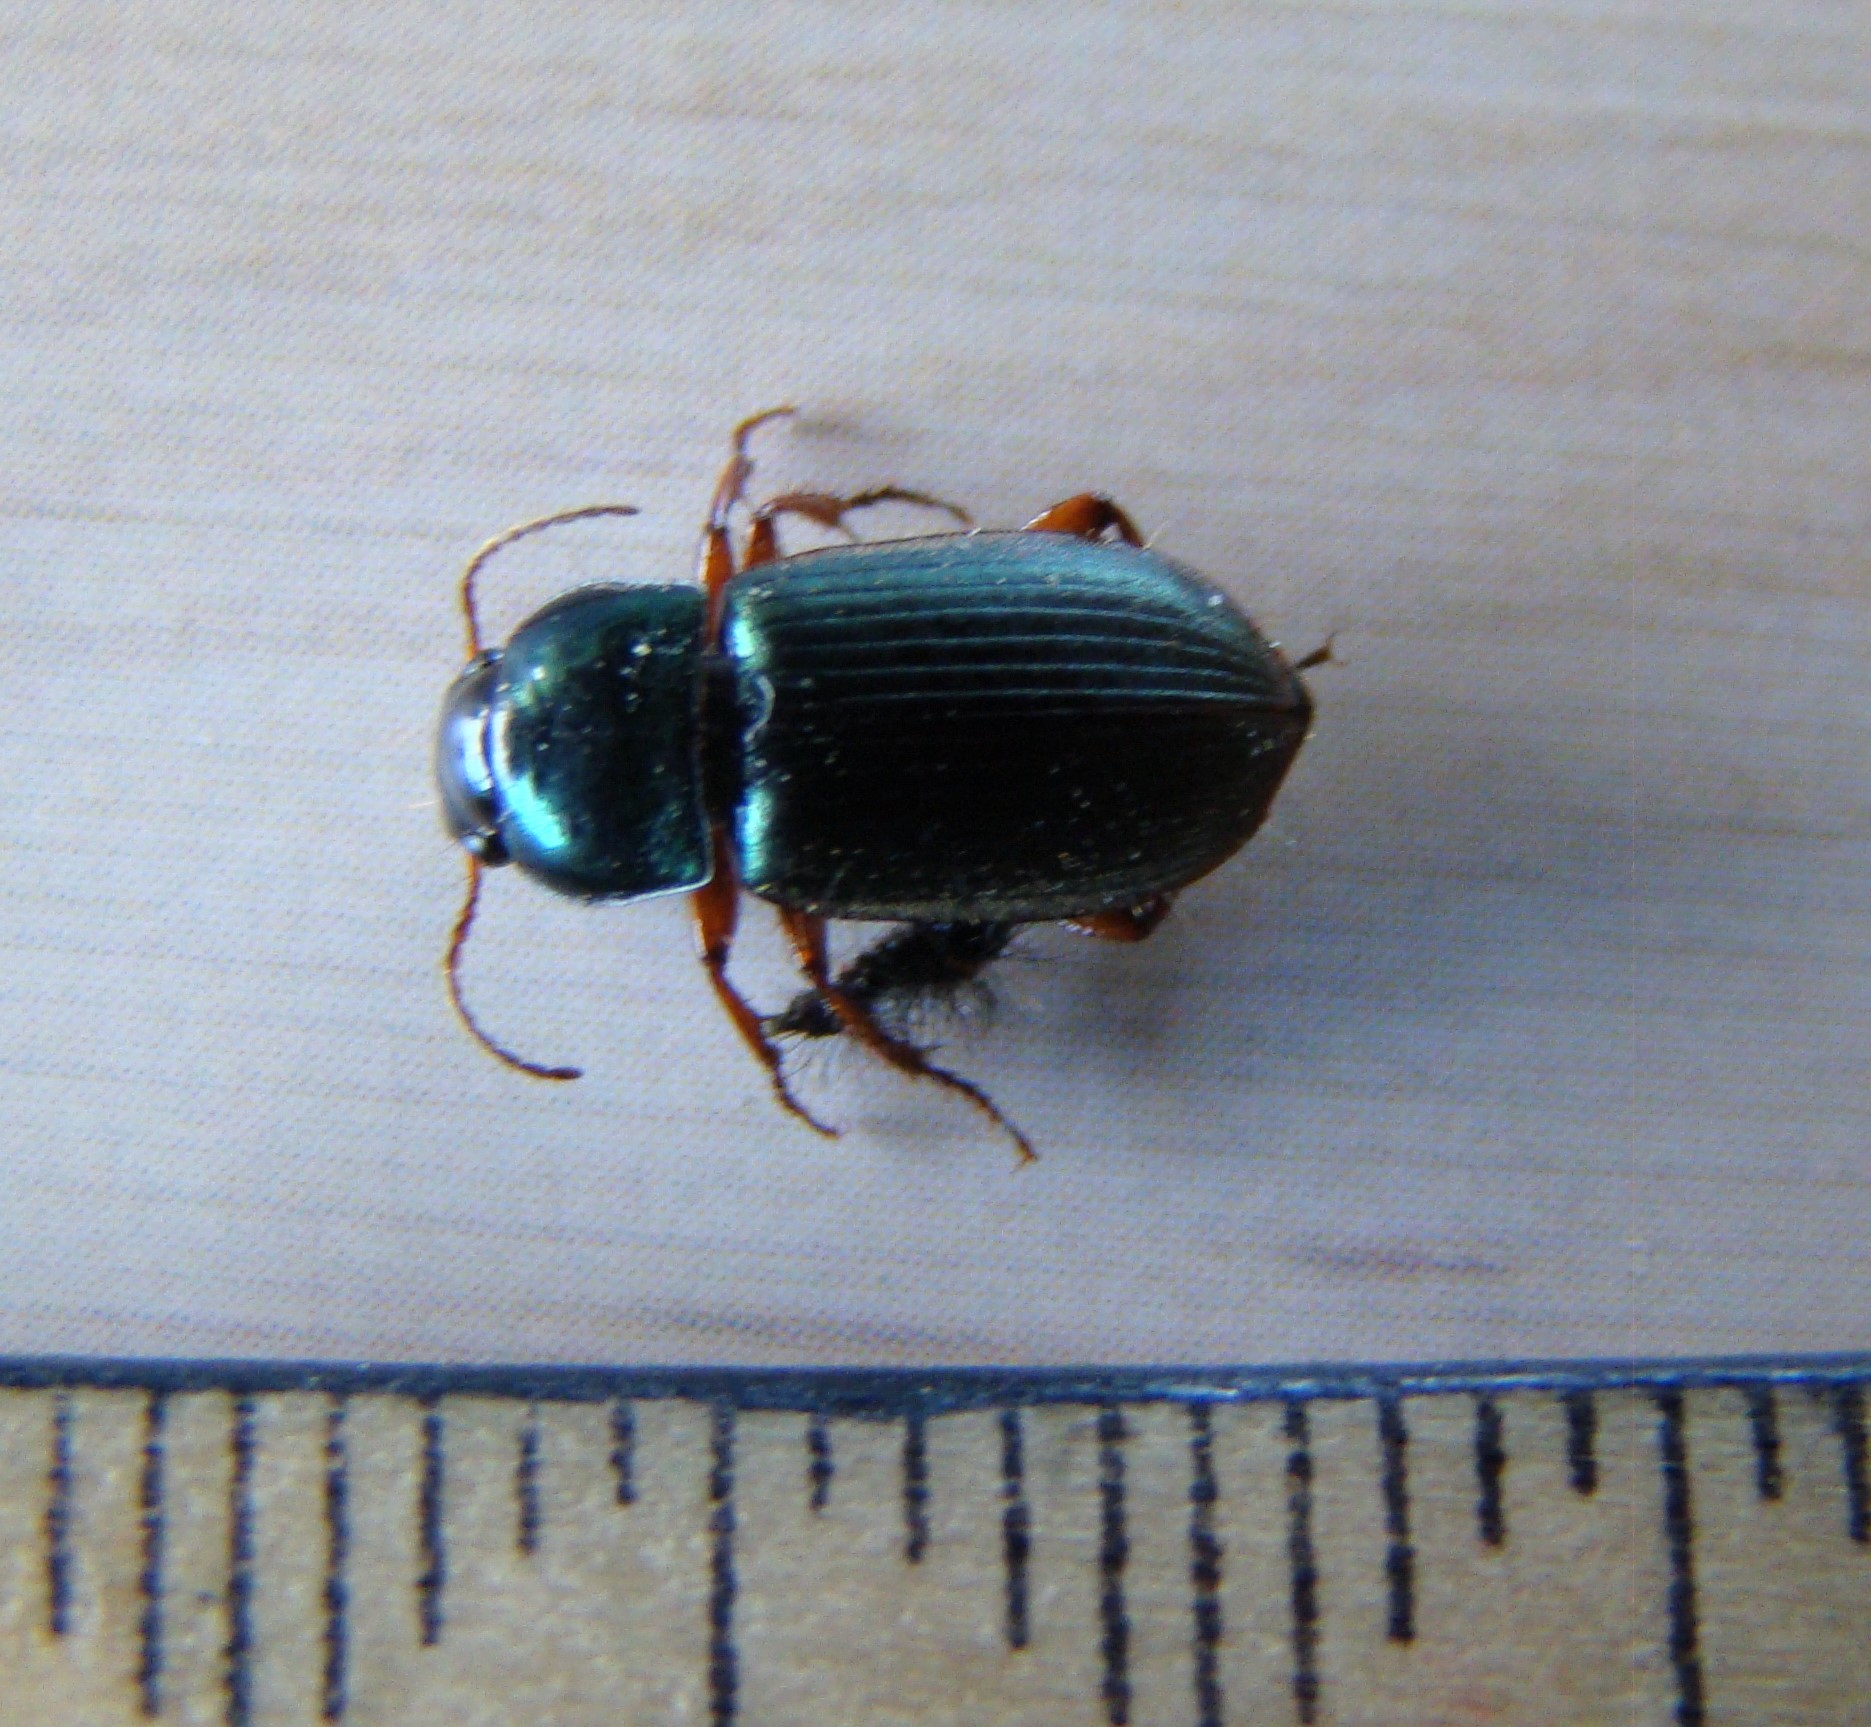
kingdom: Animalia
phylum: Arthropoda
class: Insecta
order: Coleoptera
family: Carabidae
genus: Harpalus
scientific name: Harpalus affinis
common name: Polychrome harp ground beetle
